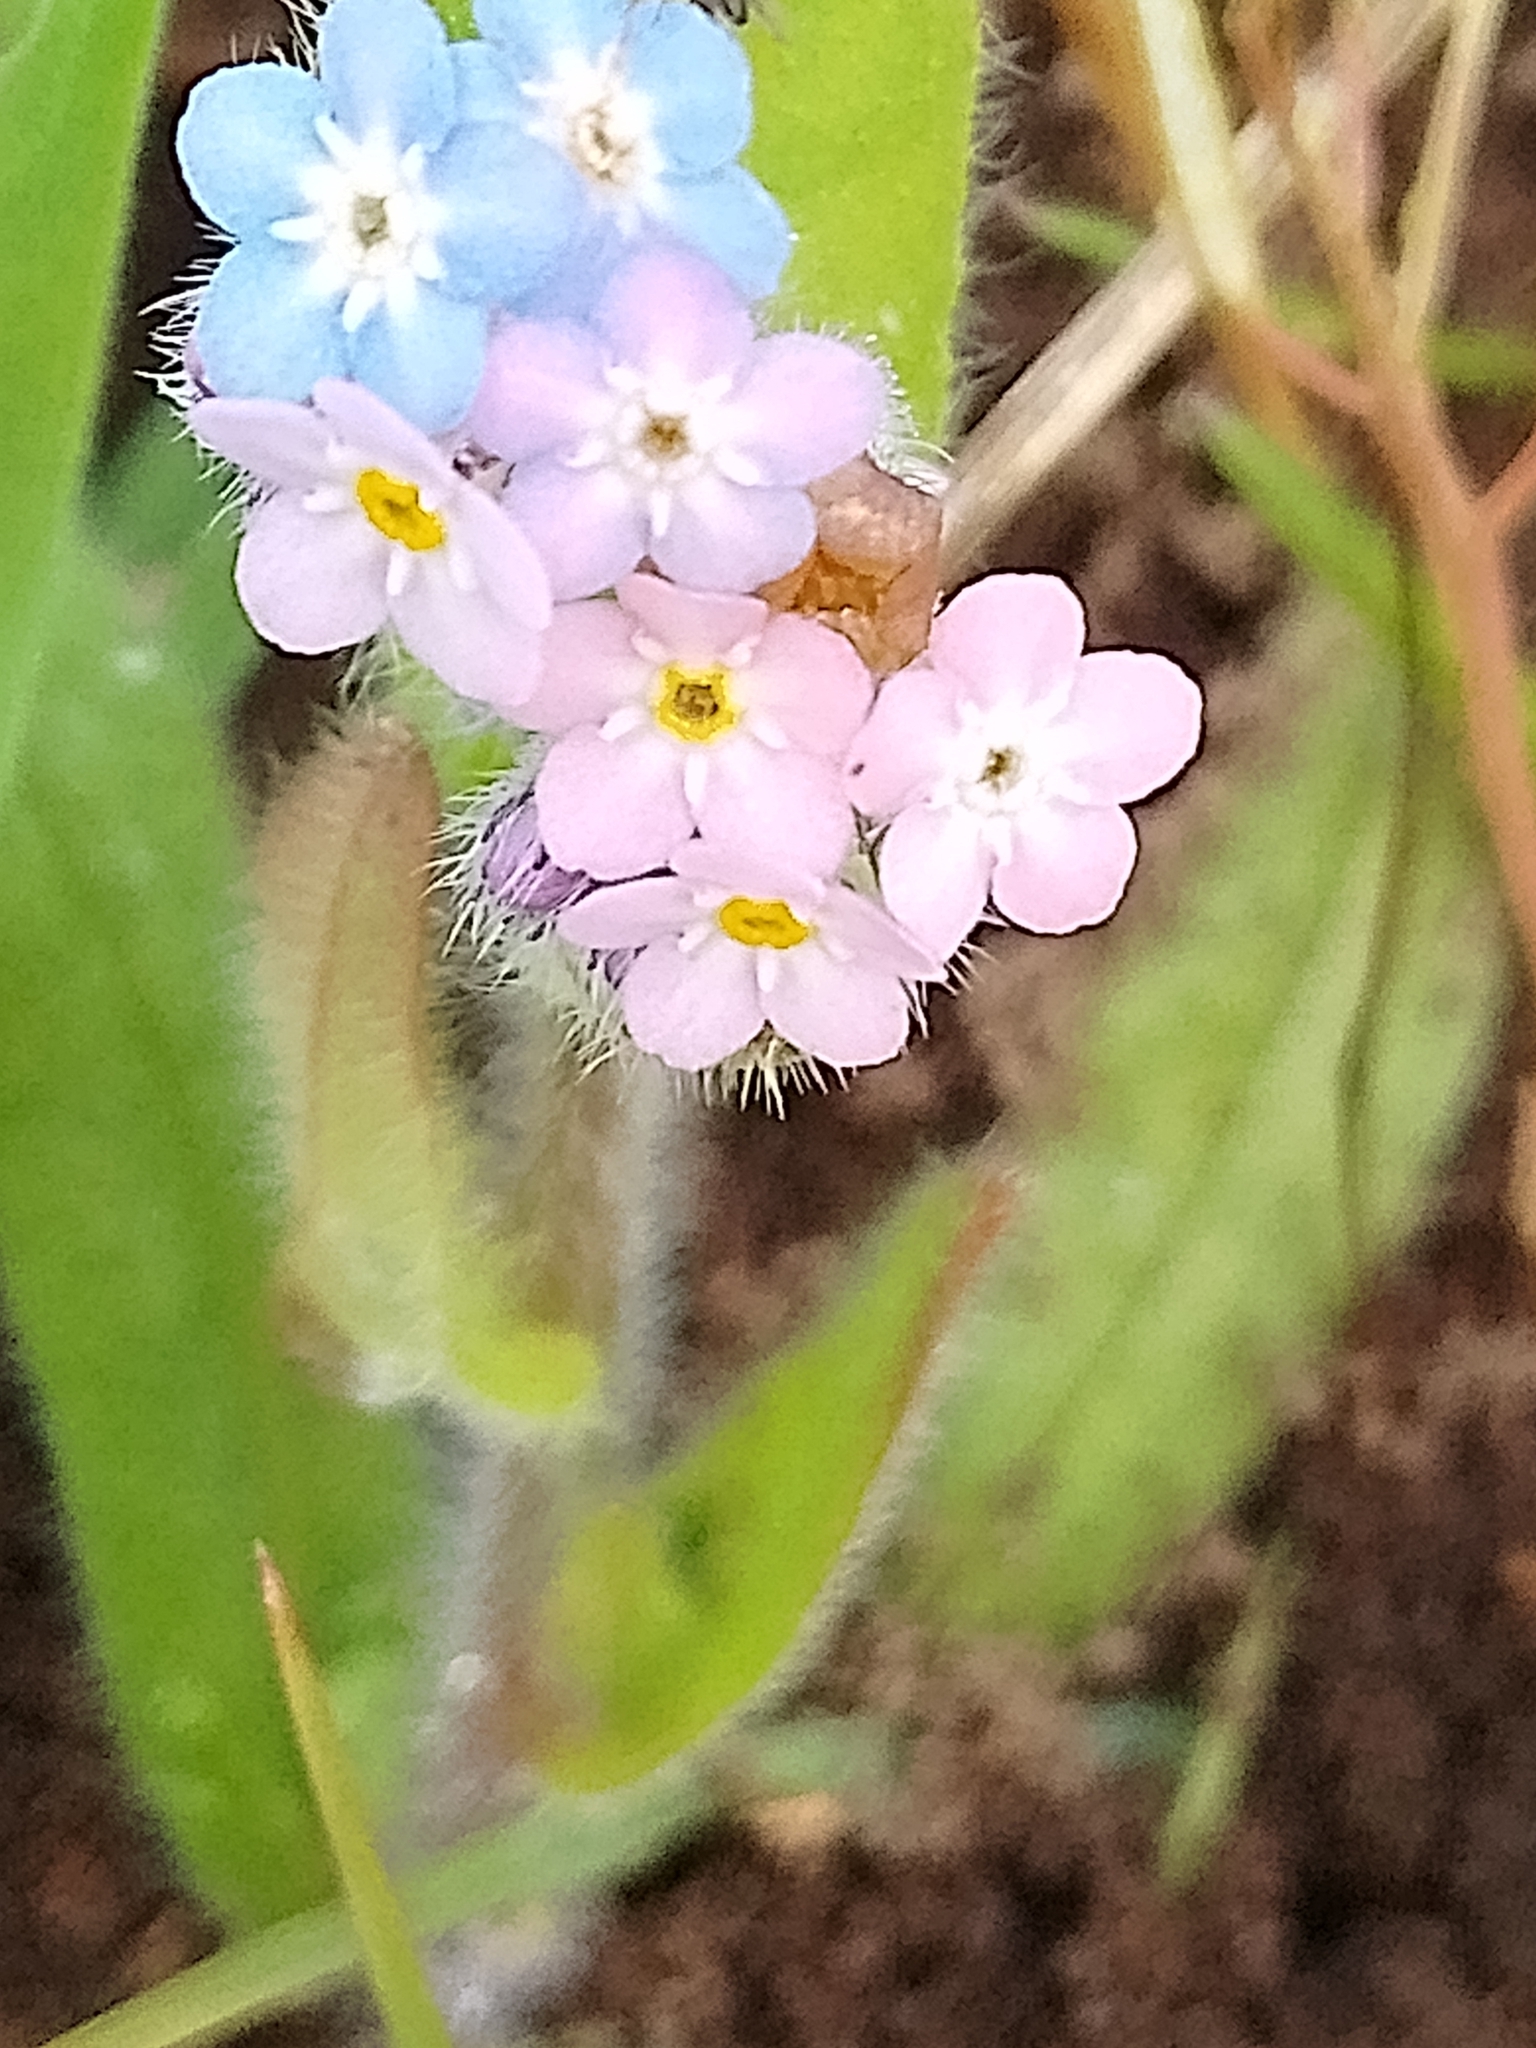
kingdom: Plantae
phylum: Tracheophyta
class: Magnoliopsida
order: Boraginales
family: Boraginaceae
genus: Myosotis
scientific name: Myosotis arvensis
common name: Field forget-me-not
